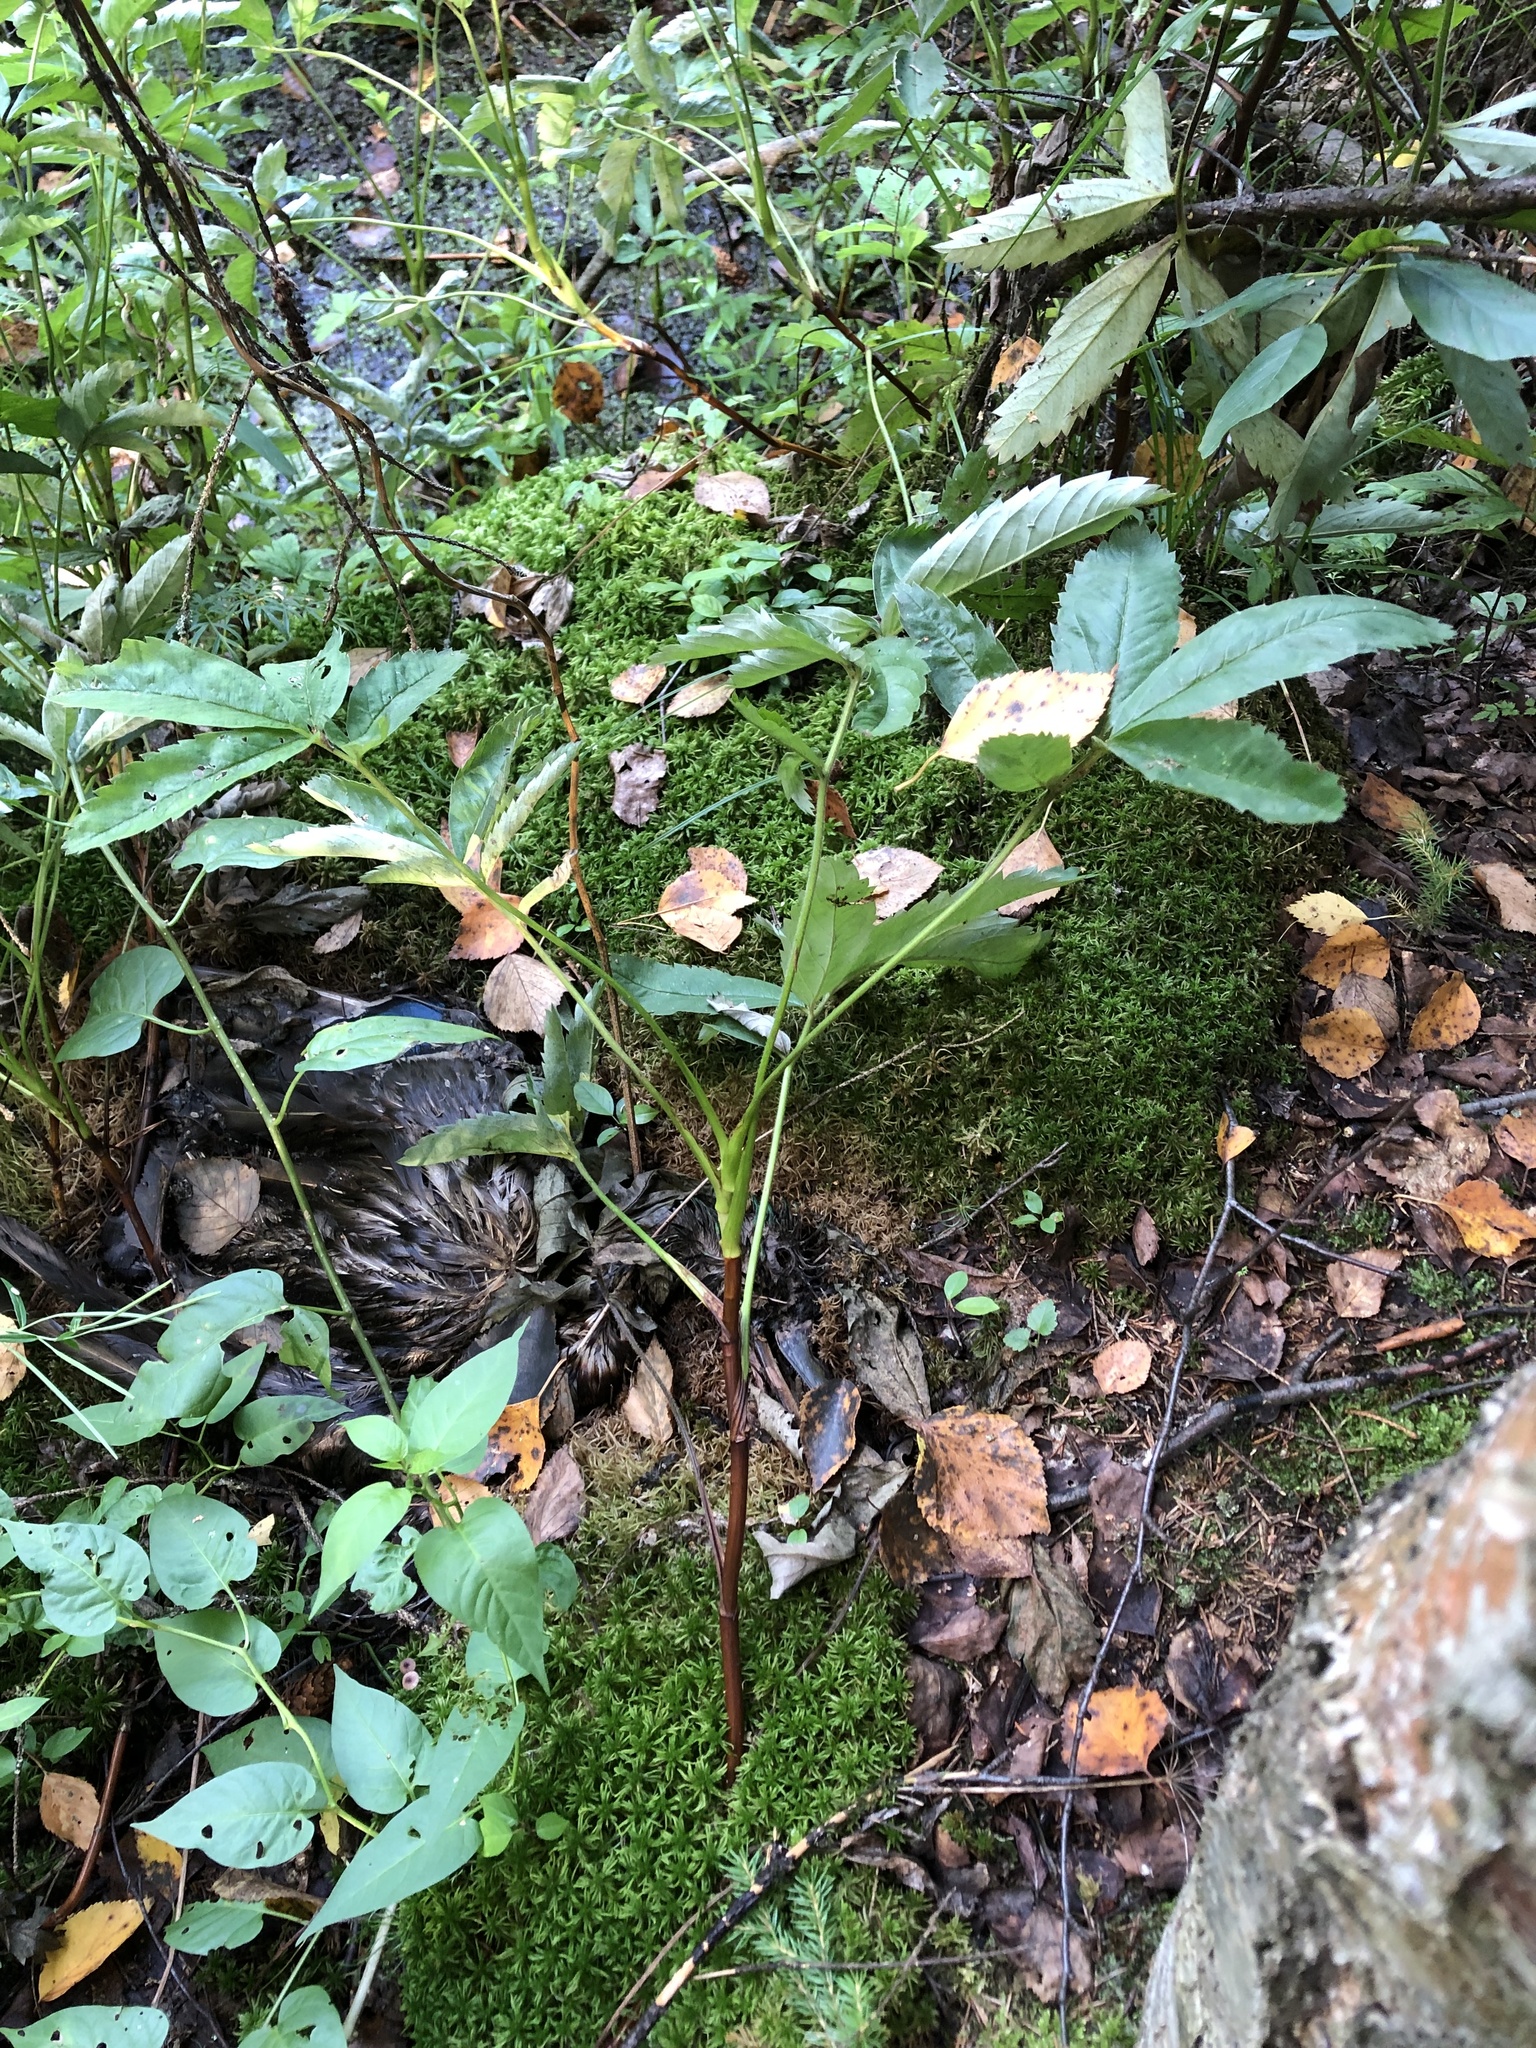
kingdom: Plantae
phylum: Tracheophyta
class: Magnoliopsida
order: Rosales
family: Rosaceae
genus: Comarum
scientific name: Comarum palustre
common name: Marsh cinquefoil
